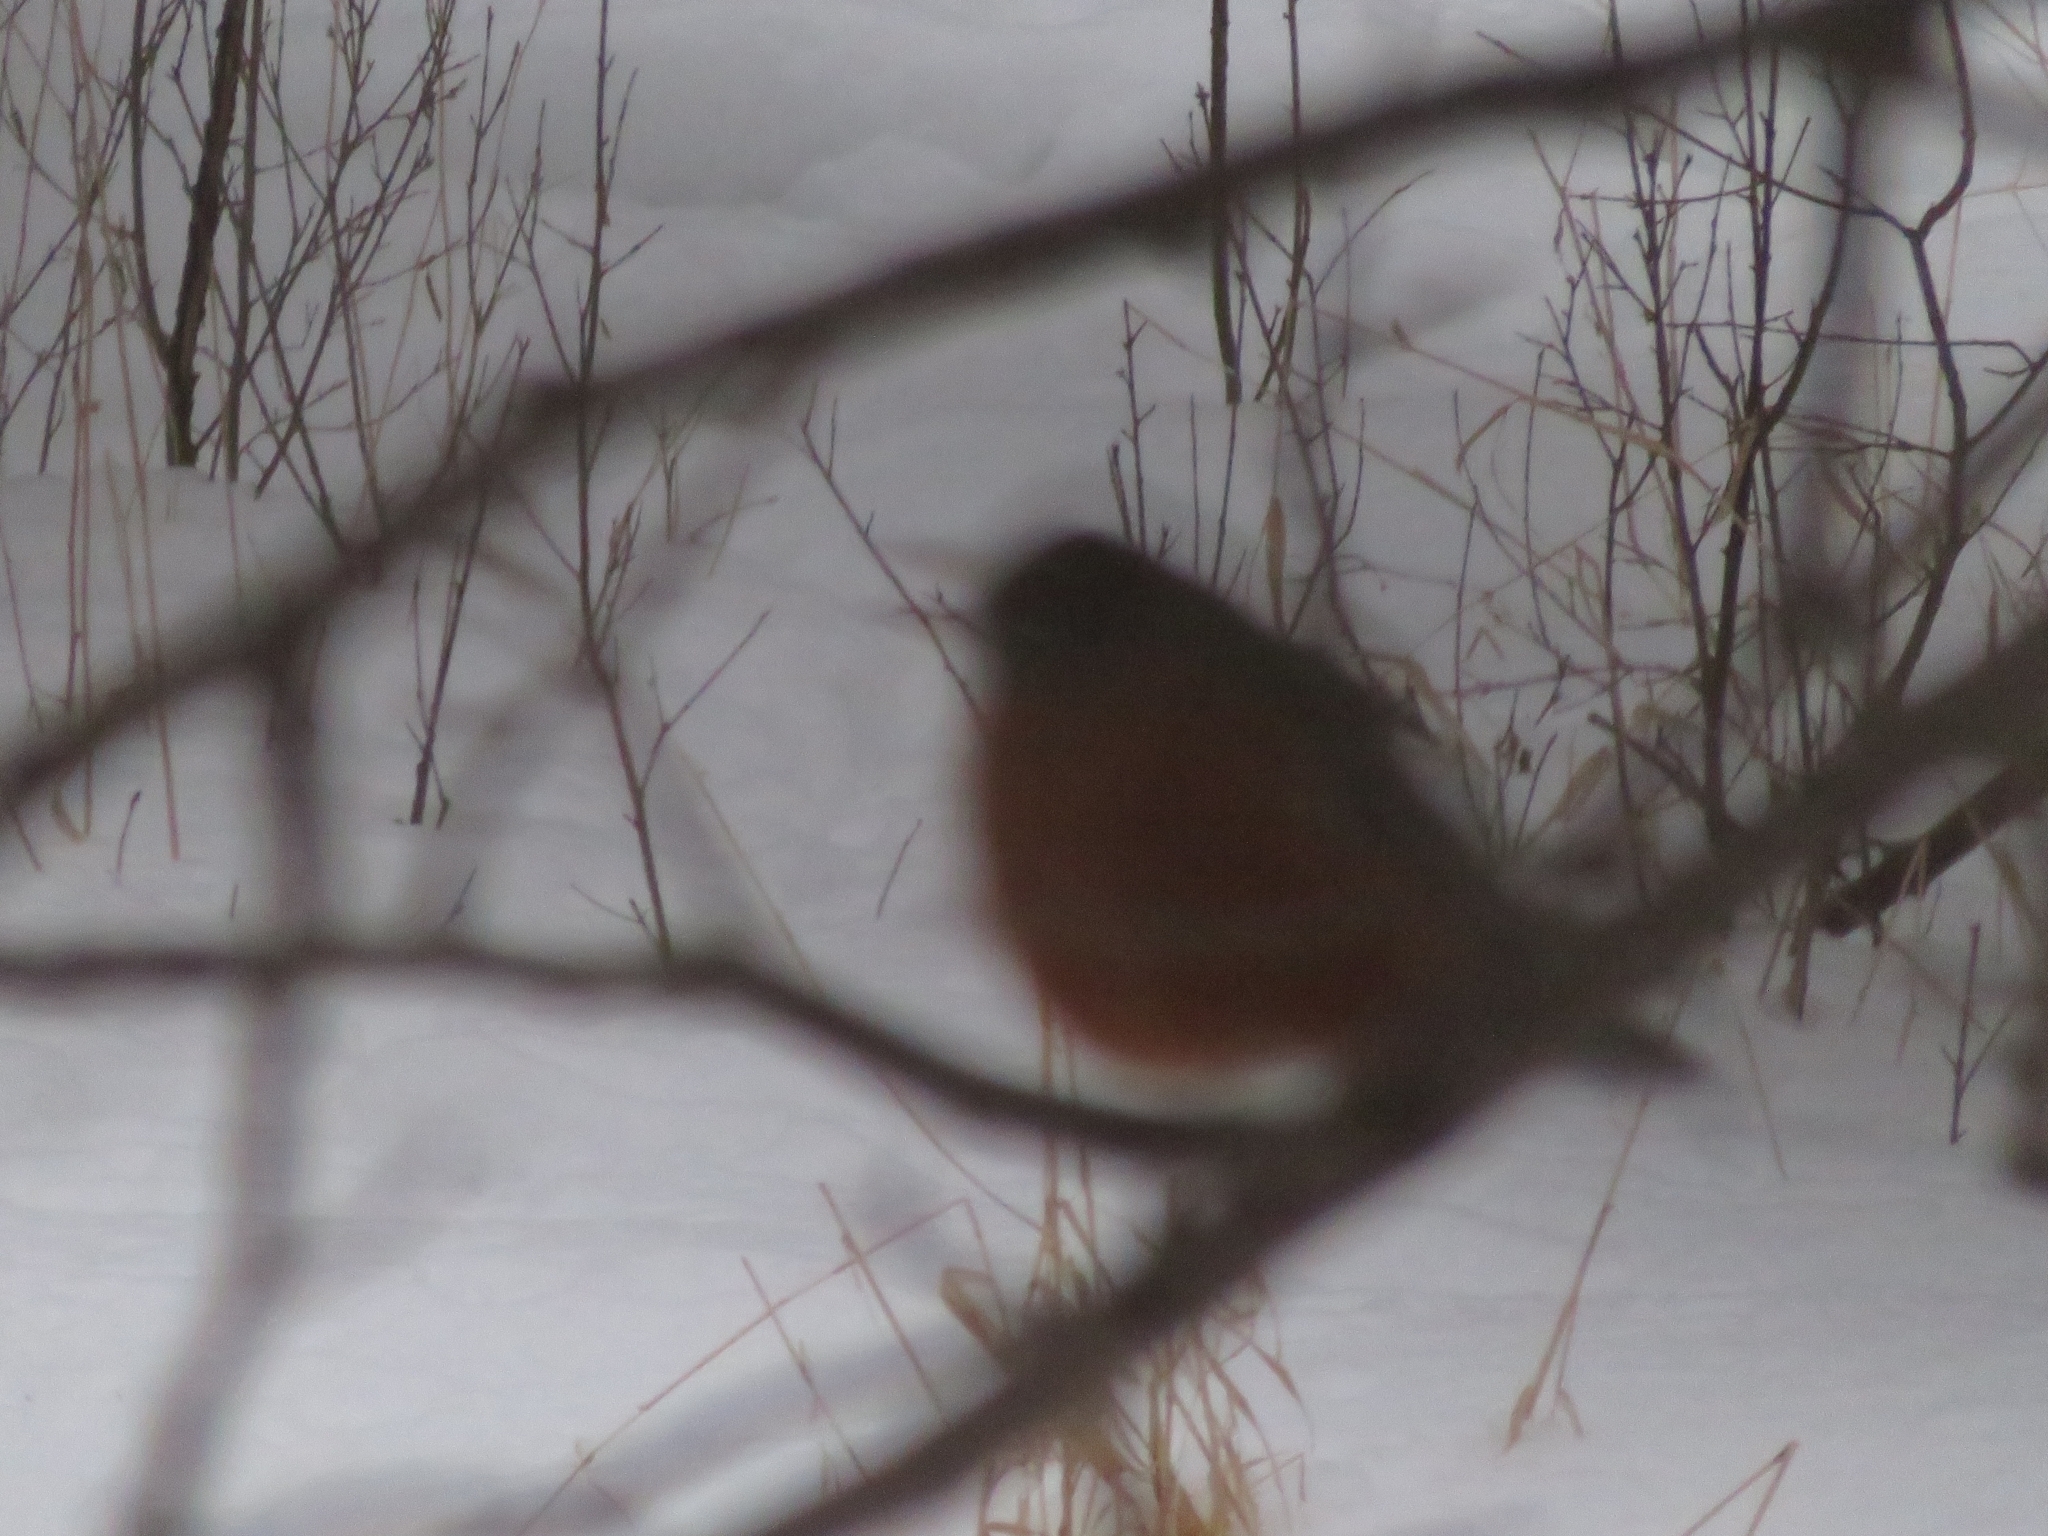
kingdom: Animalia
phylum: Chordata
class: Aves
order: Passeriformes
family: Turdidae
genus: Turdus
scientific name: Turdus migratorius
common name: American robin
